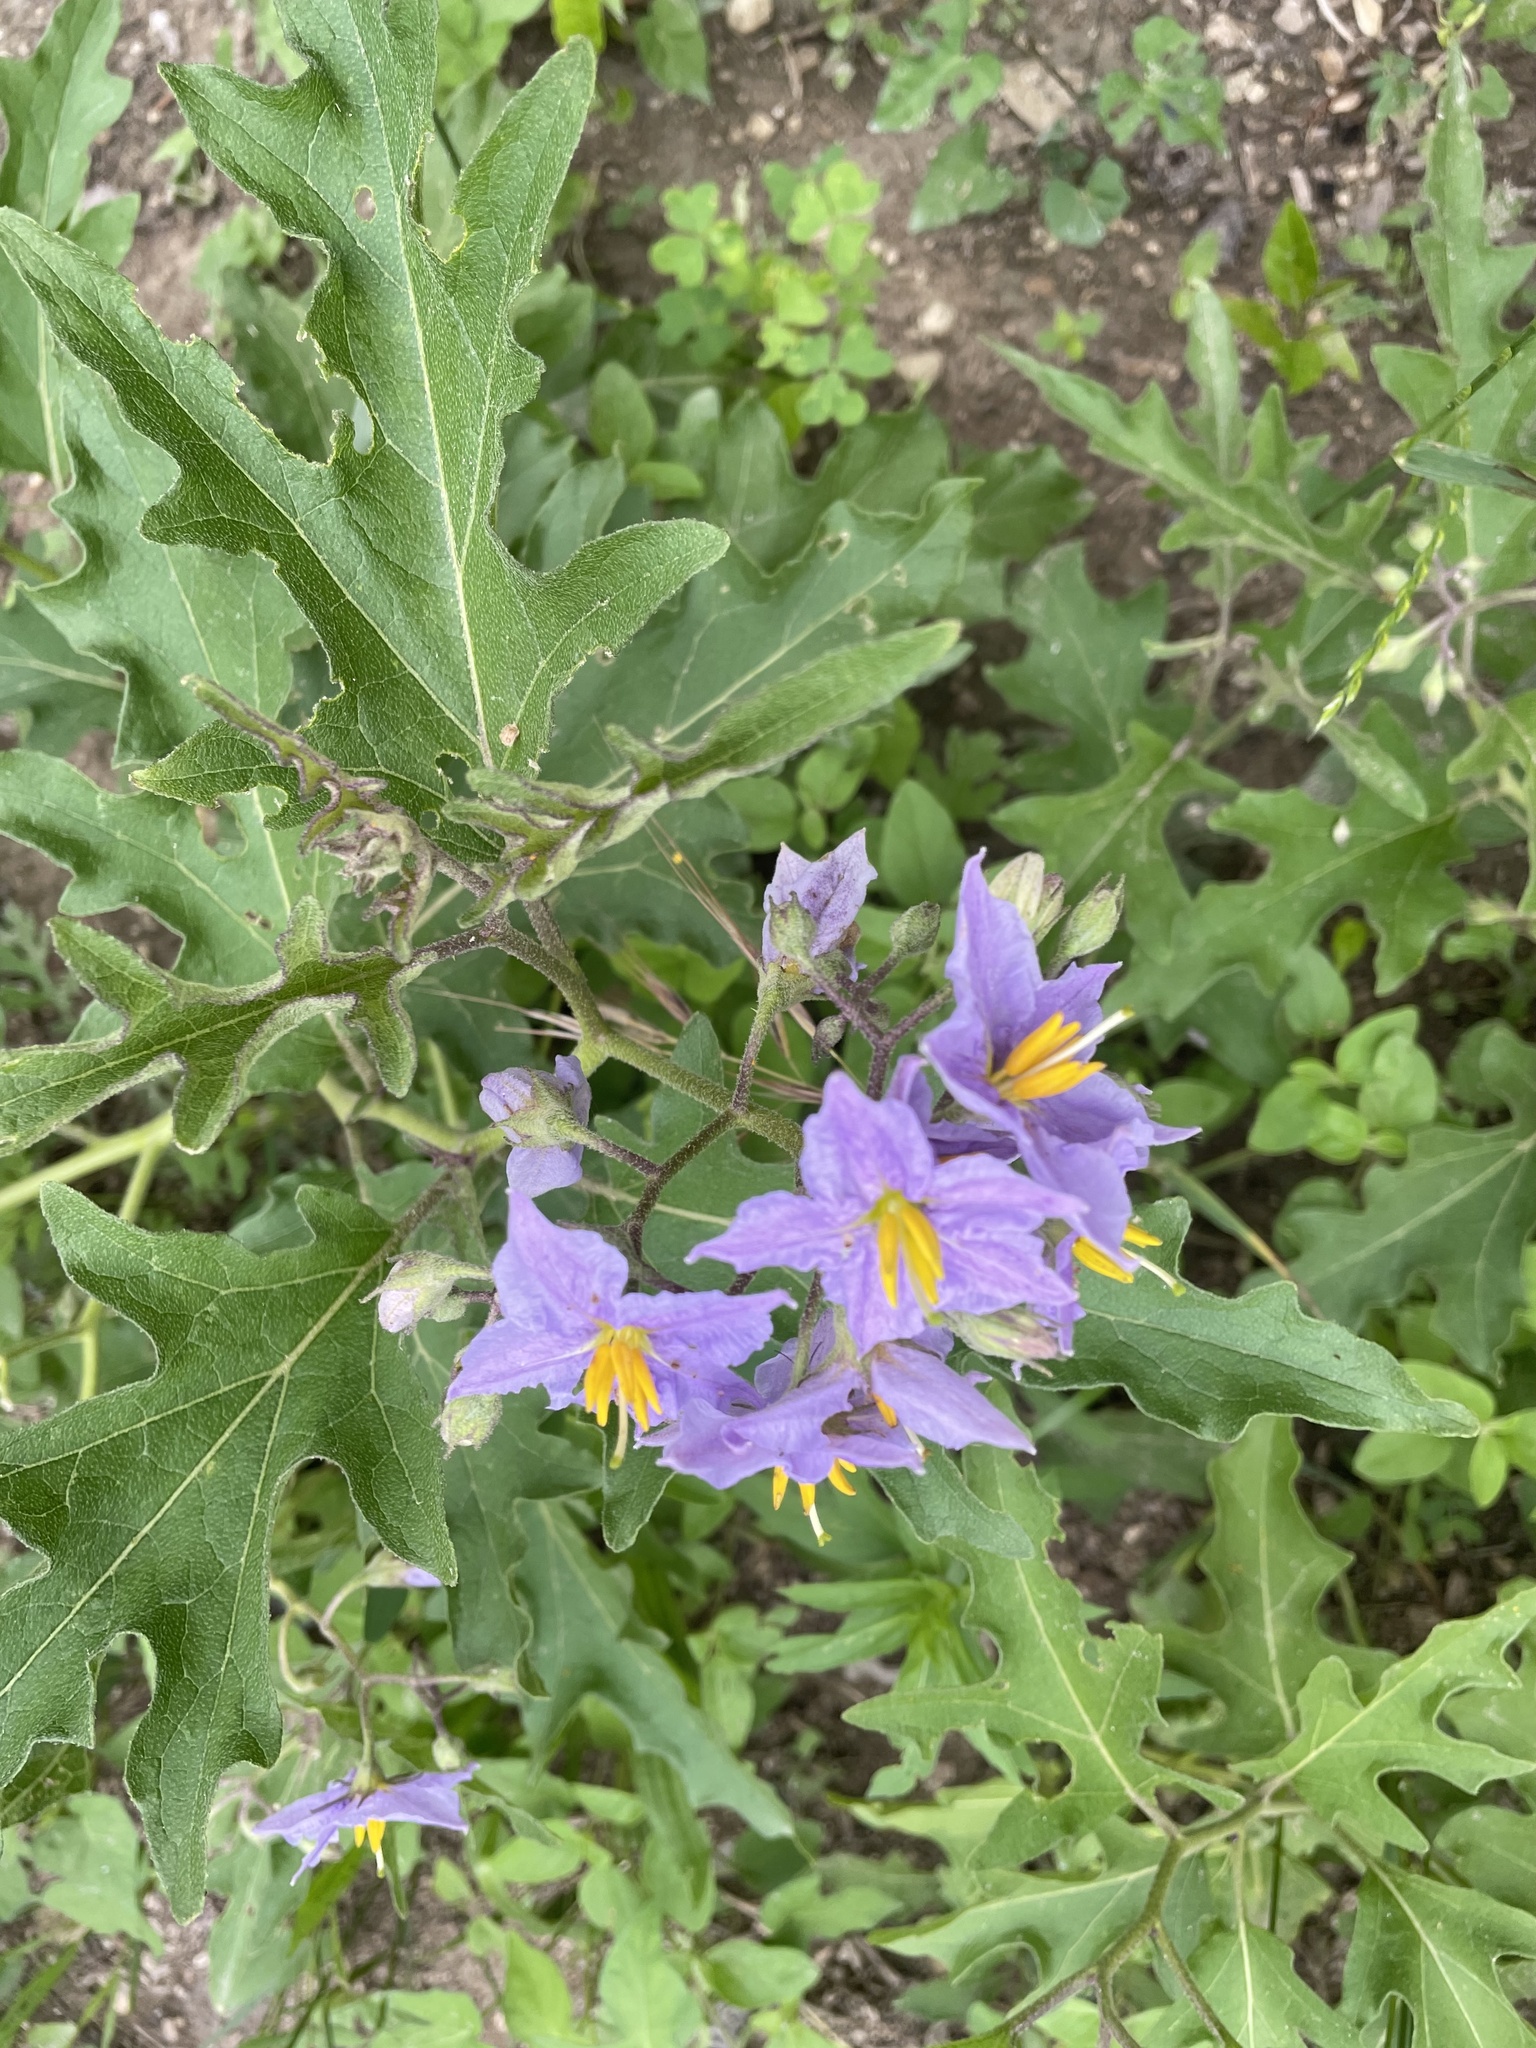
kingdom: Plantae
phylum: Tracheophyta
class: Magnoliopsida
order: Solanales
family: Solanaceae
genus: Solanum
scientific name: Solanum dimidiatum
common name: Carolina horse-nettle
